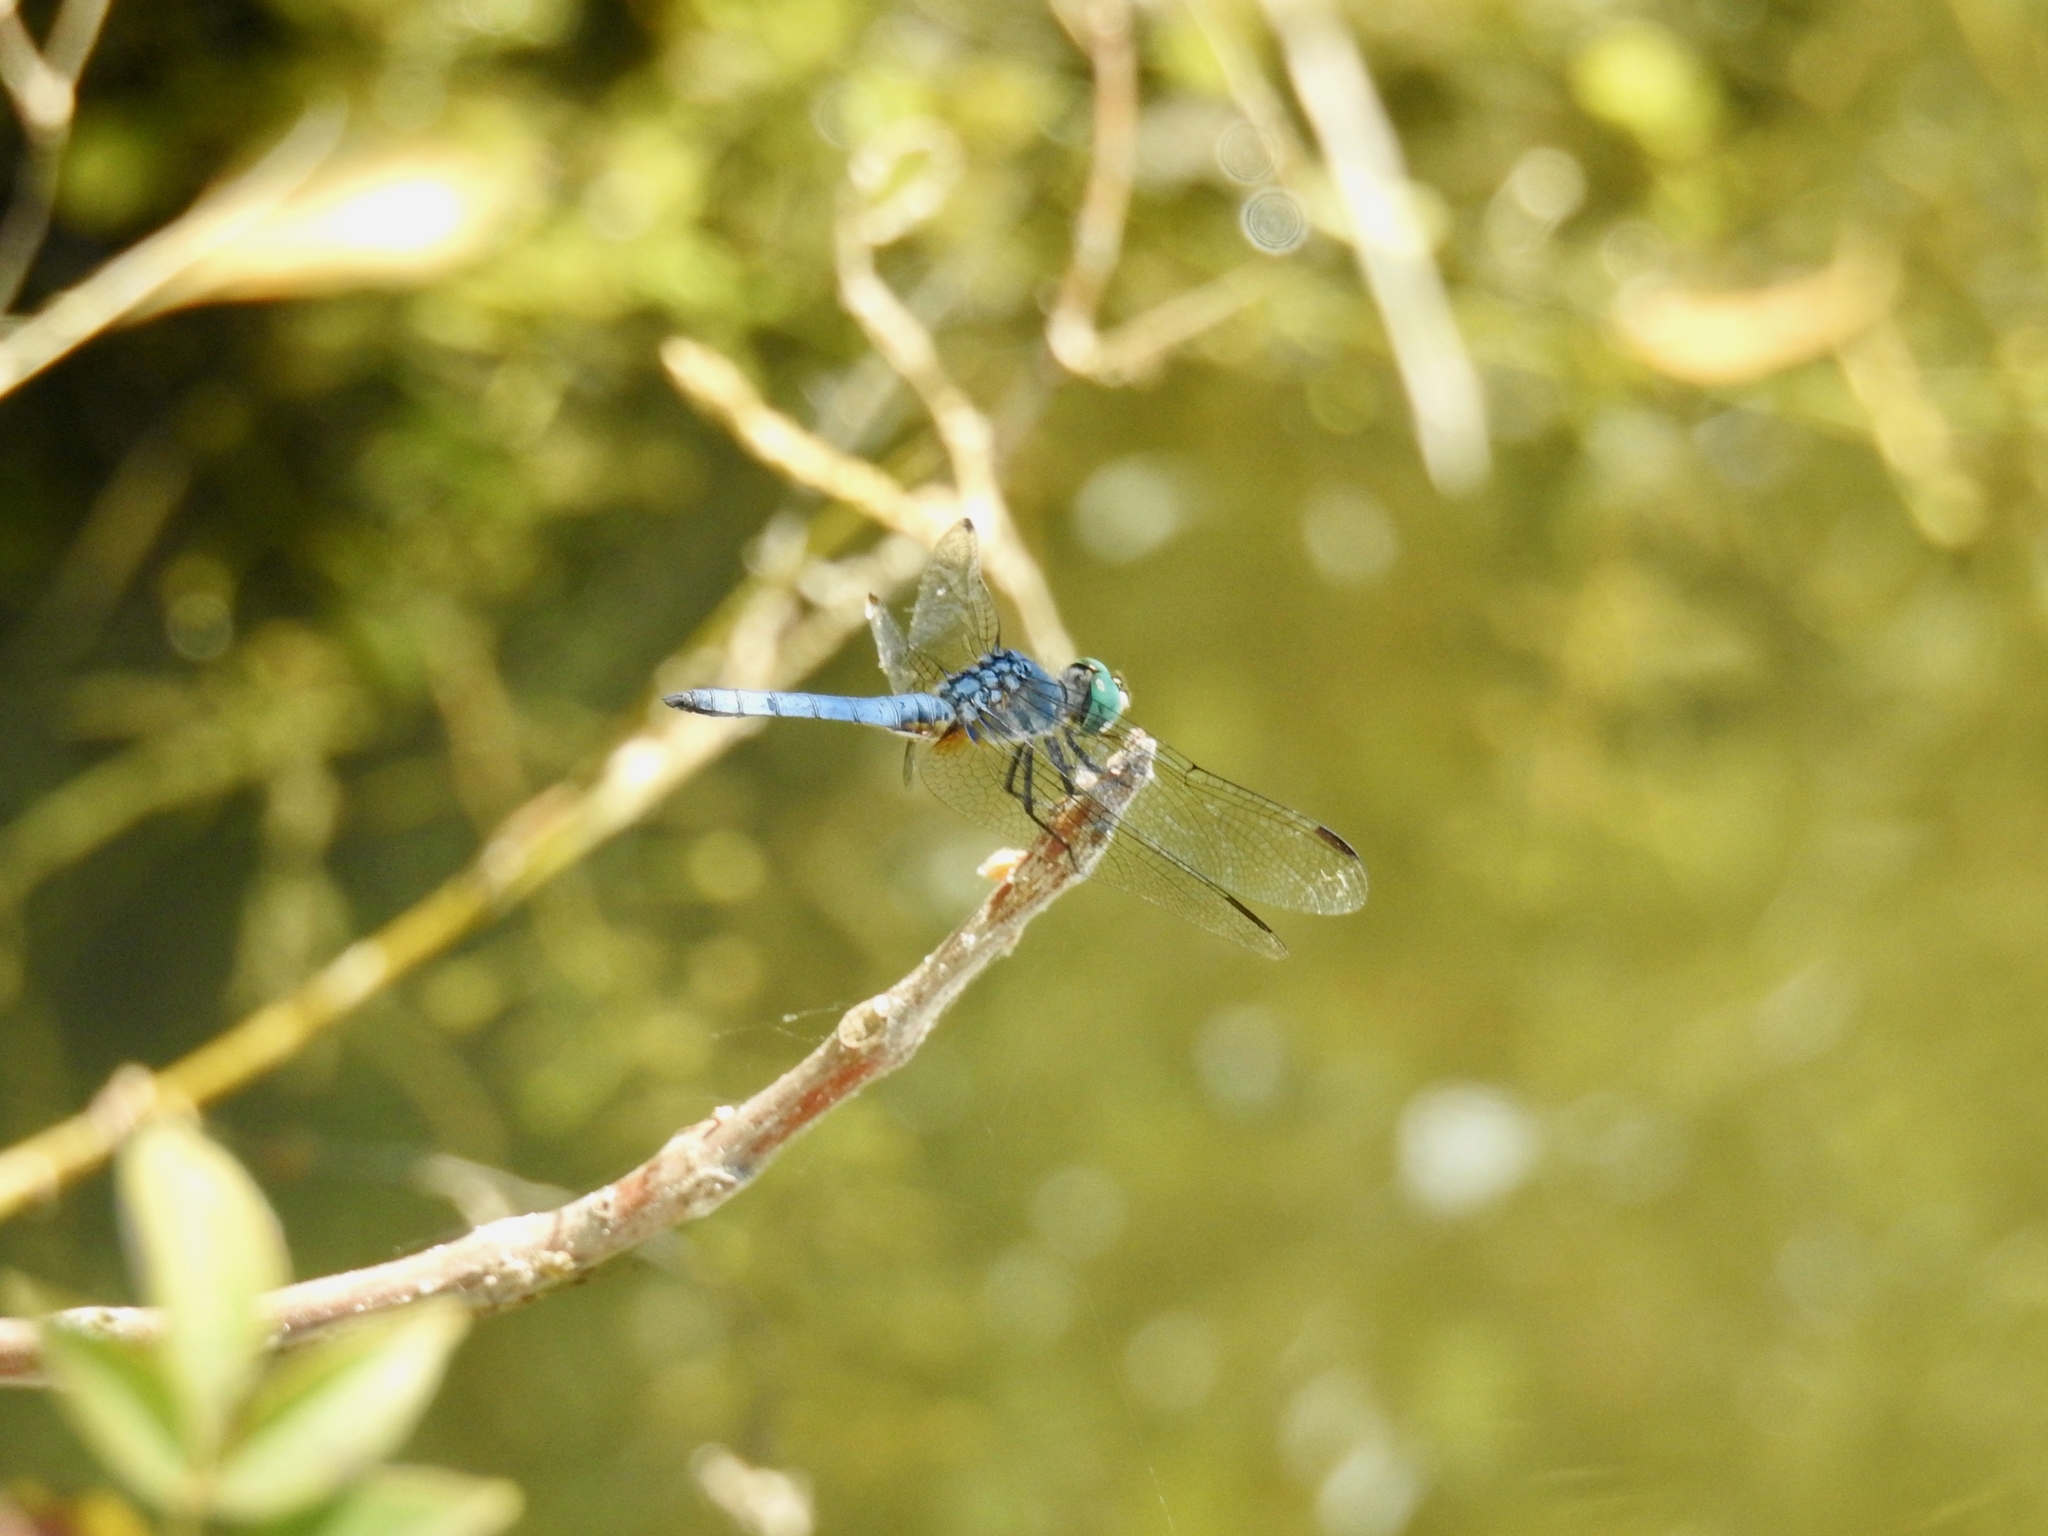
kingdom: Animalia
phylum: Arthropoda
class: Insecta
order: Odonata
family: Libellulidae
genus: Pachydiplax
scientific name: Pachydiplax longipennis
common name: Blue dasher
